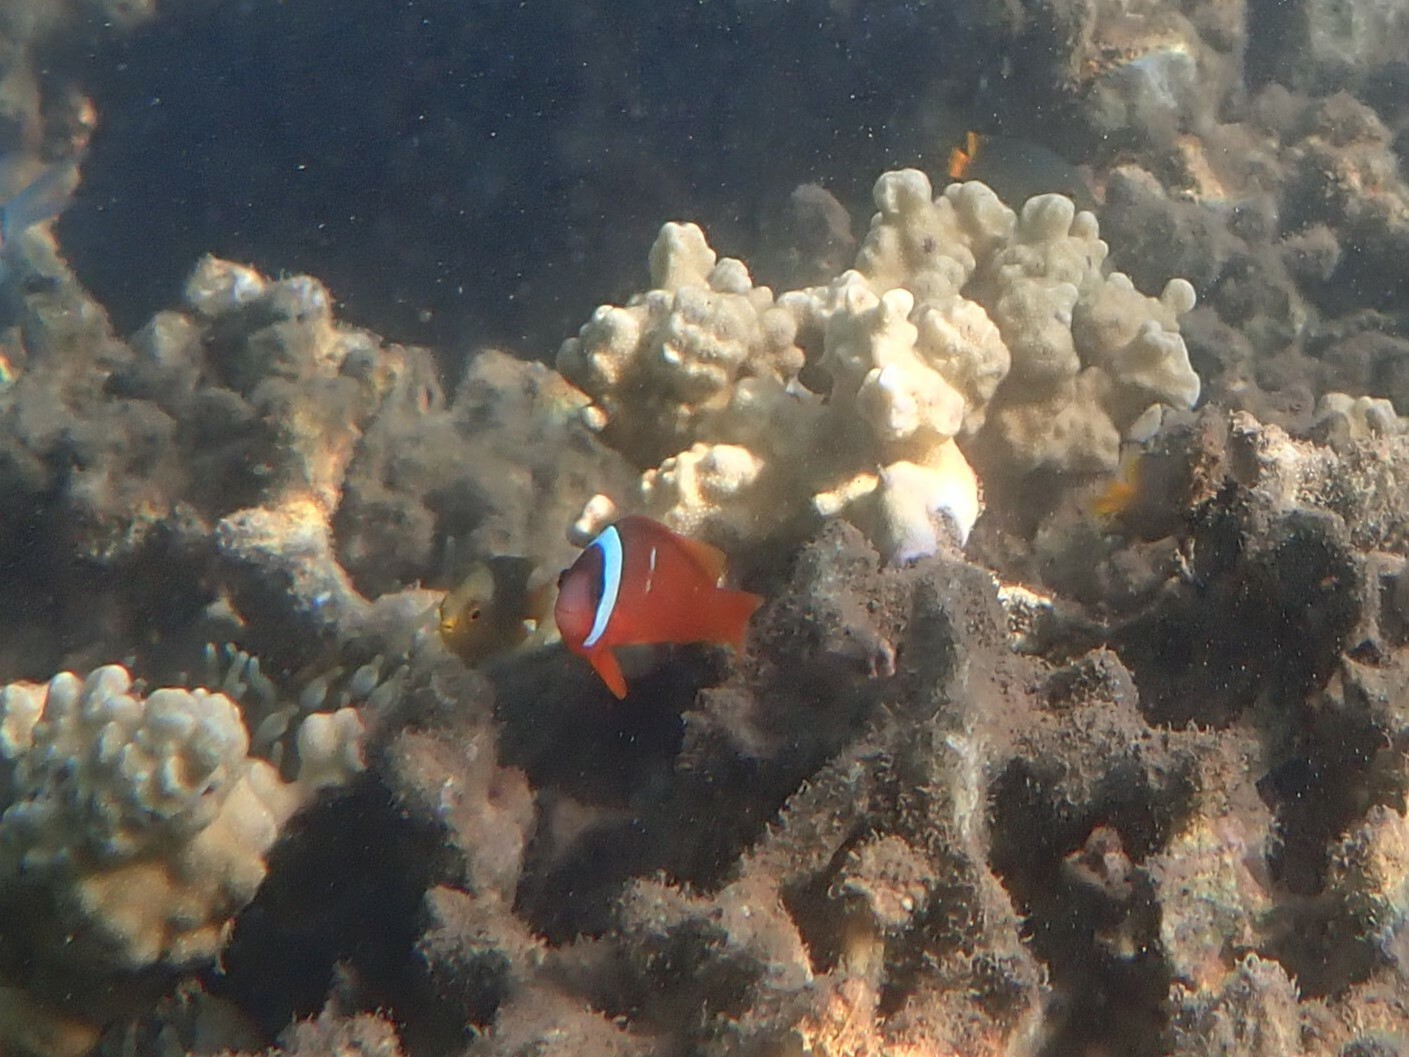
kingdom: Animalia
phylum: Chordata
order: Perciformes
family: Pomacentridae
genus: Amphiprion
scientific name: Amphiprion barberi
